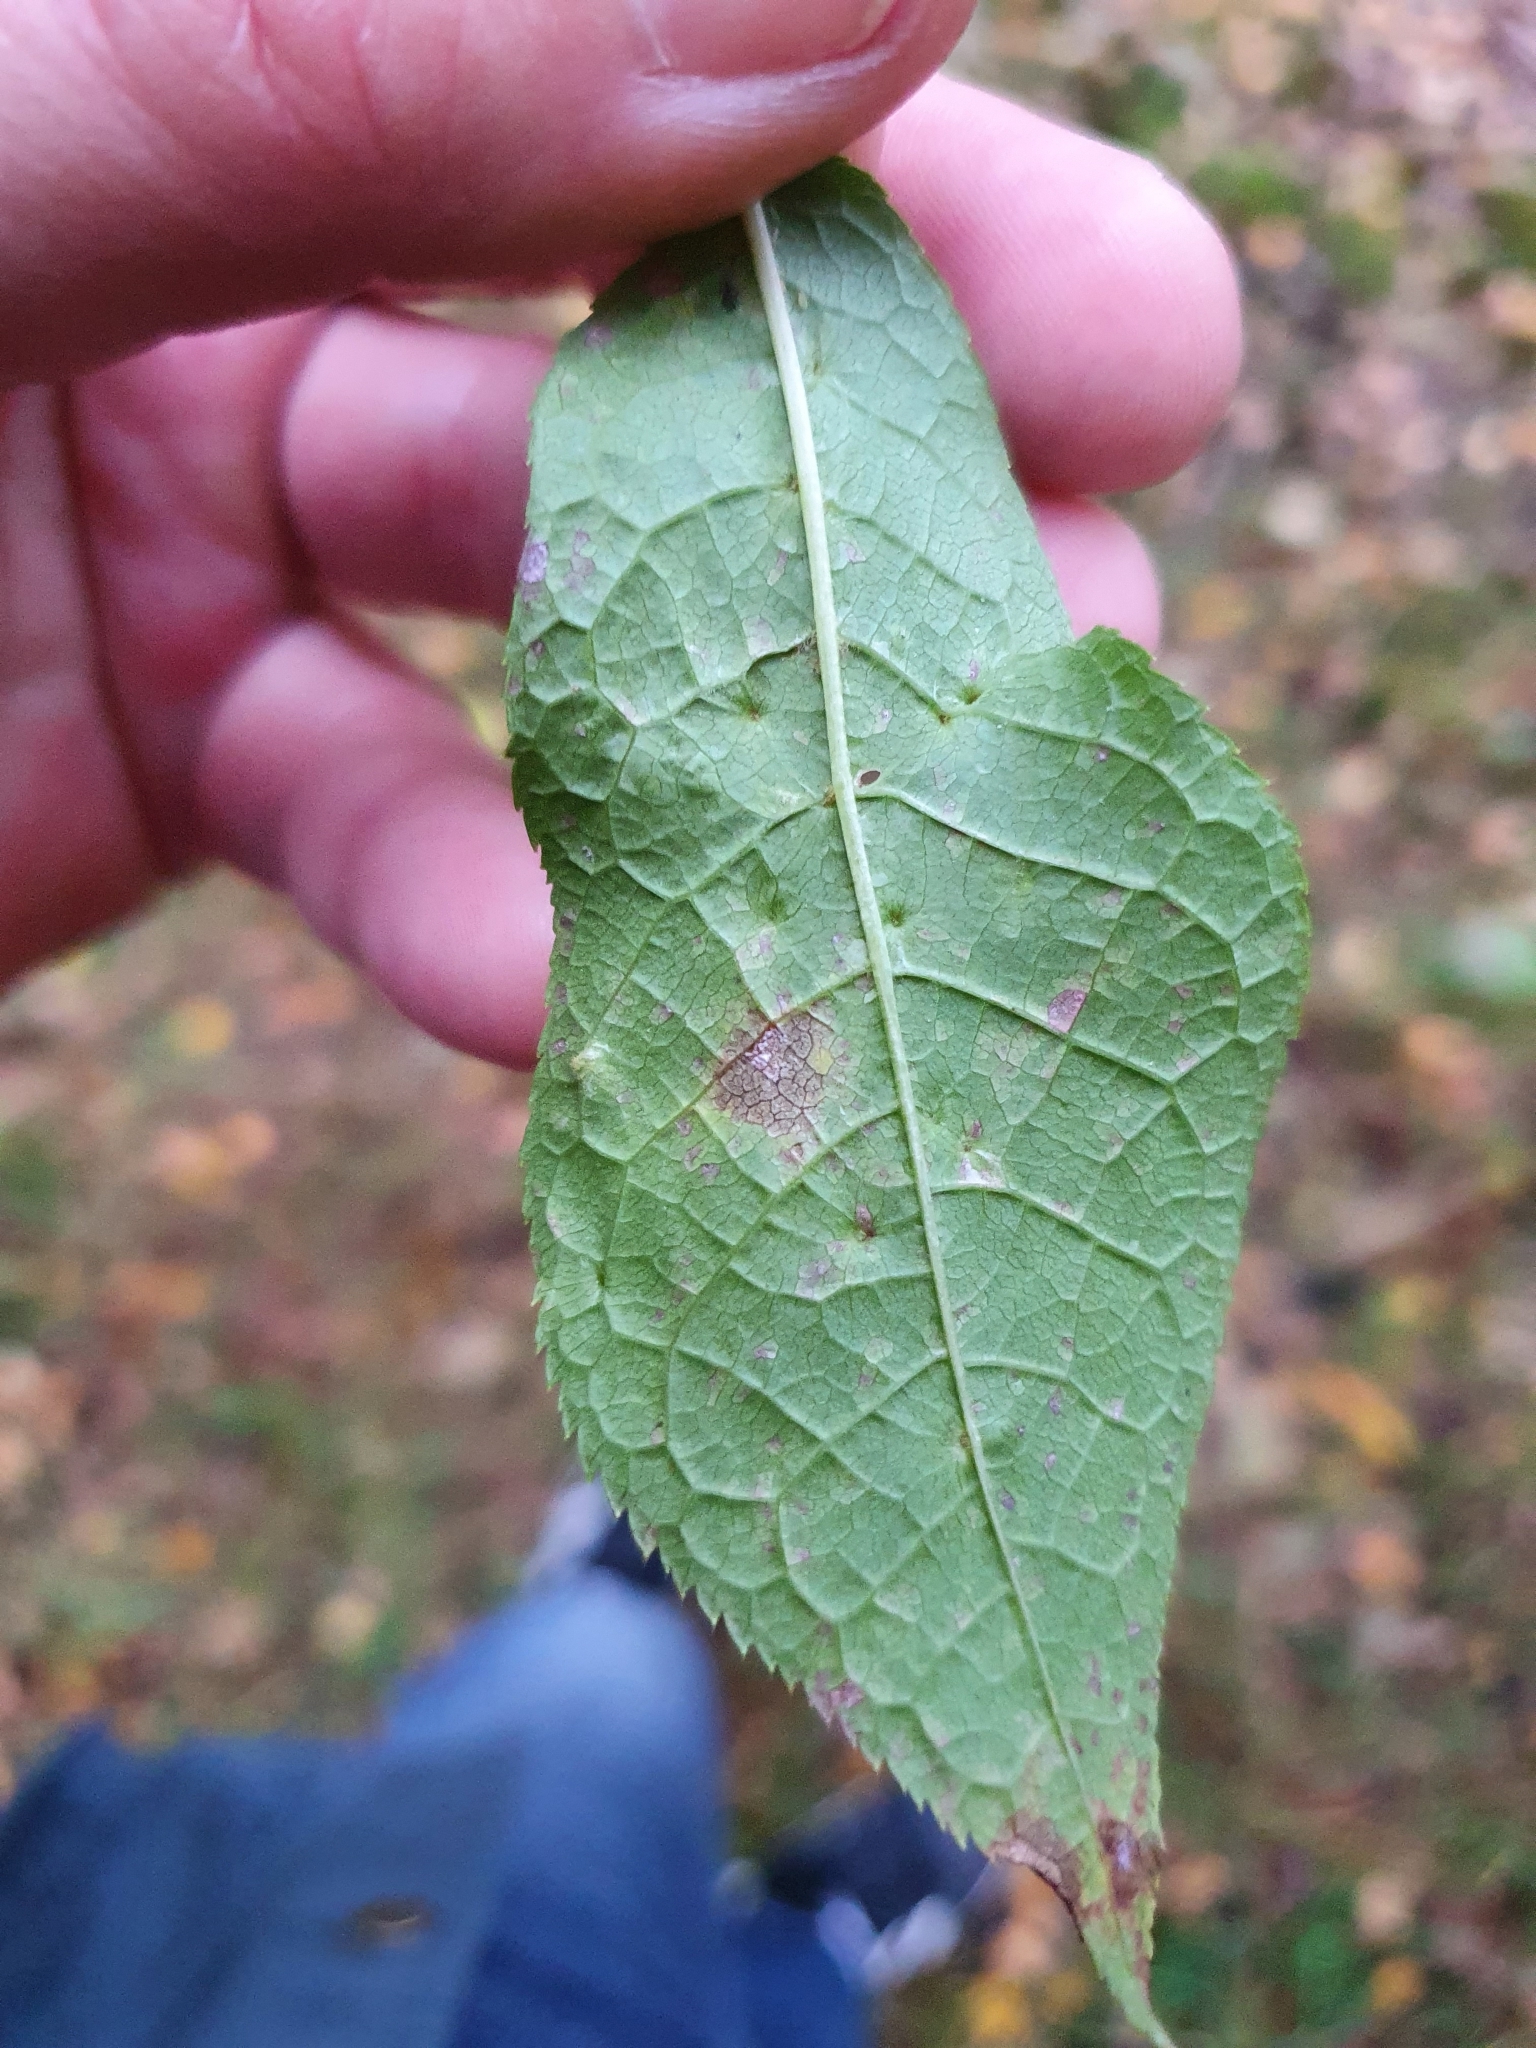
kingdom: Animalia
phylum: Arthropoda
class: Arachnida
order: Trombidiformes
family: Eriophyidae
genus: Phyllocoptes
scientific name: Phyllocoptes eupadi
